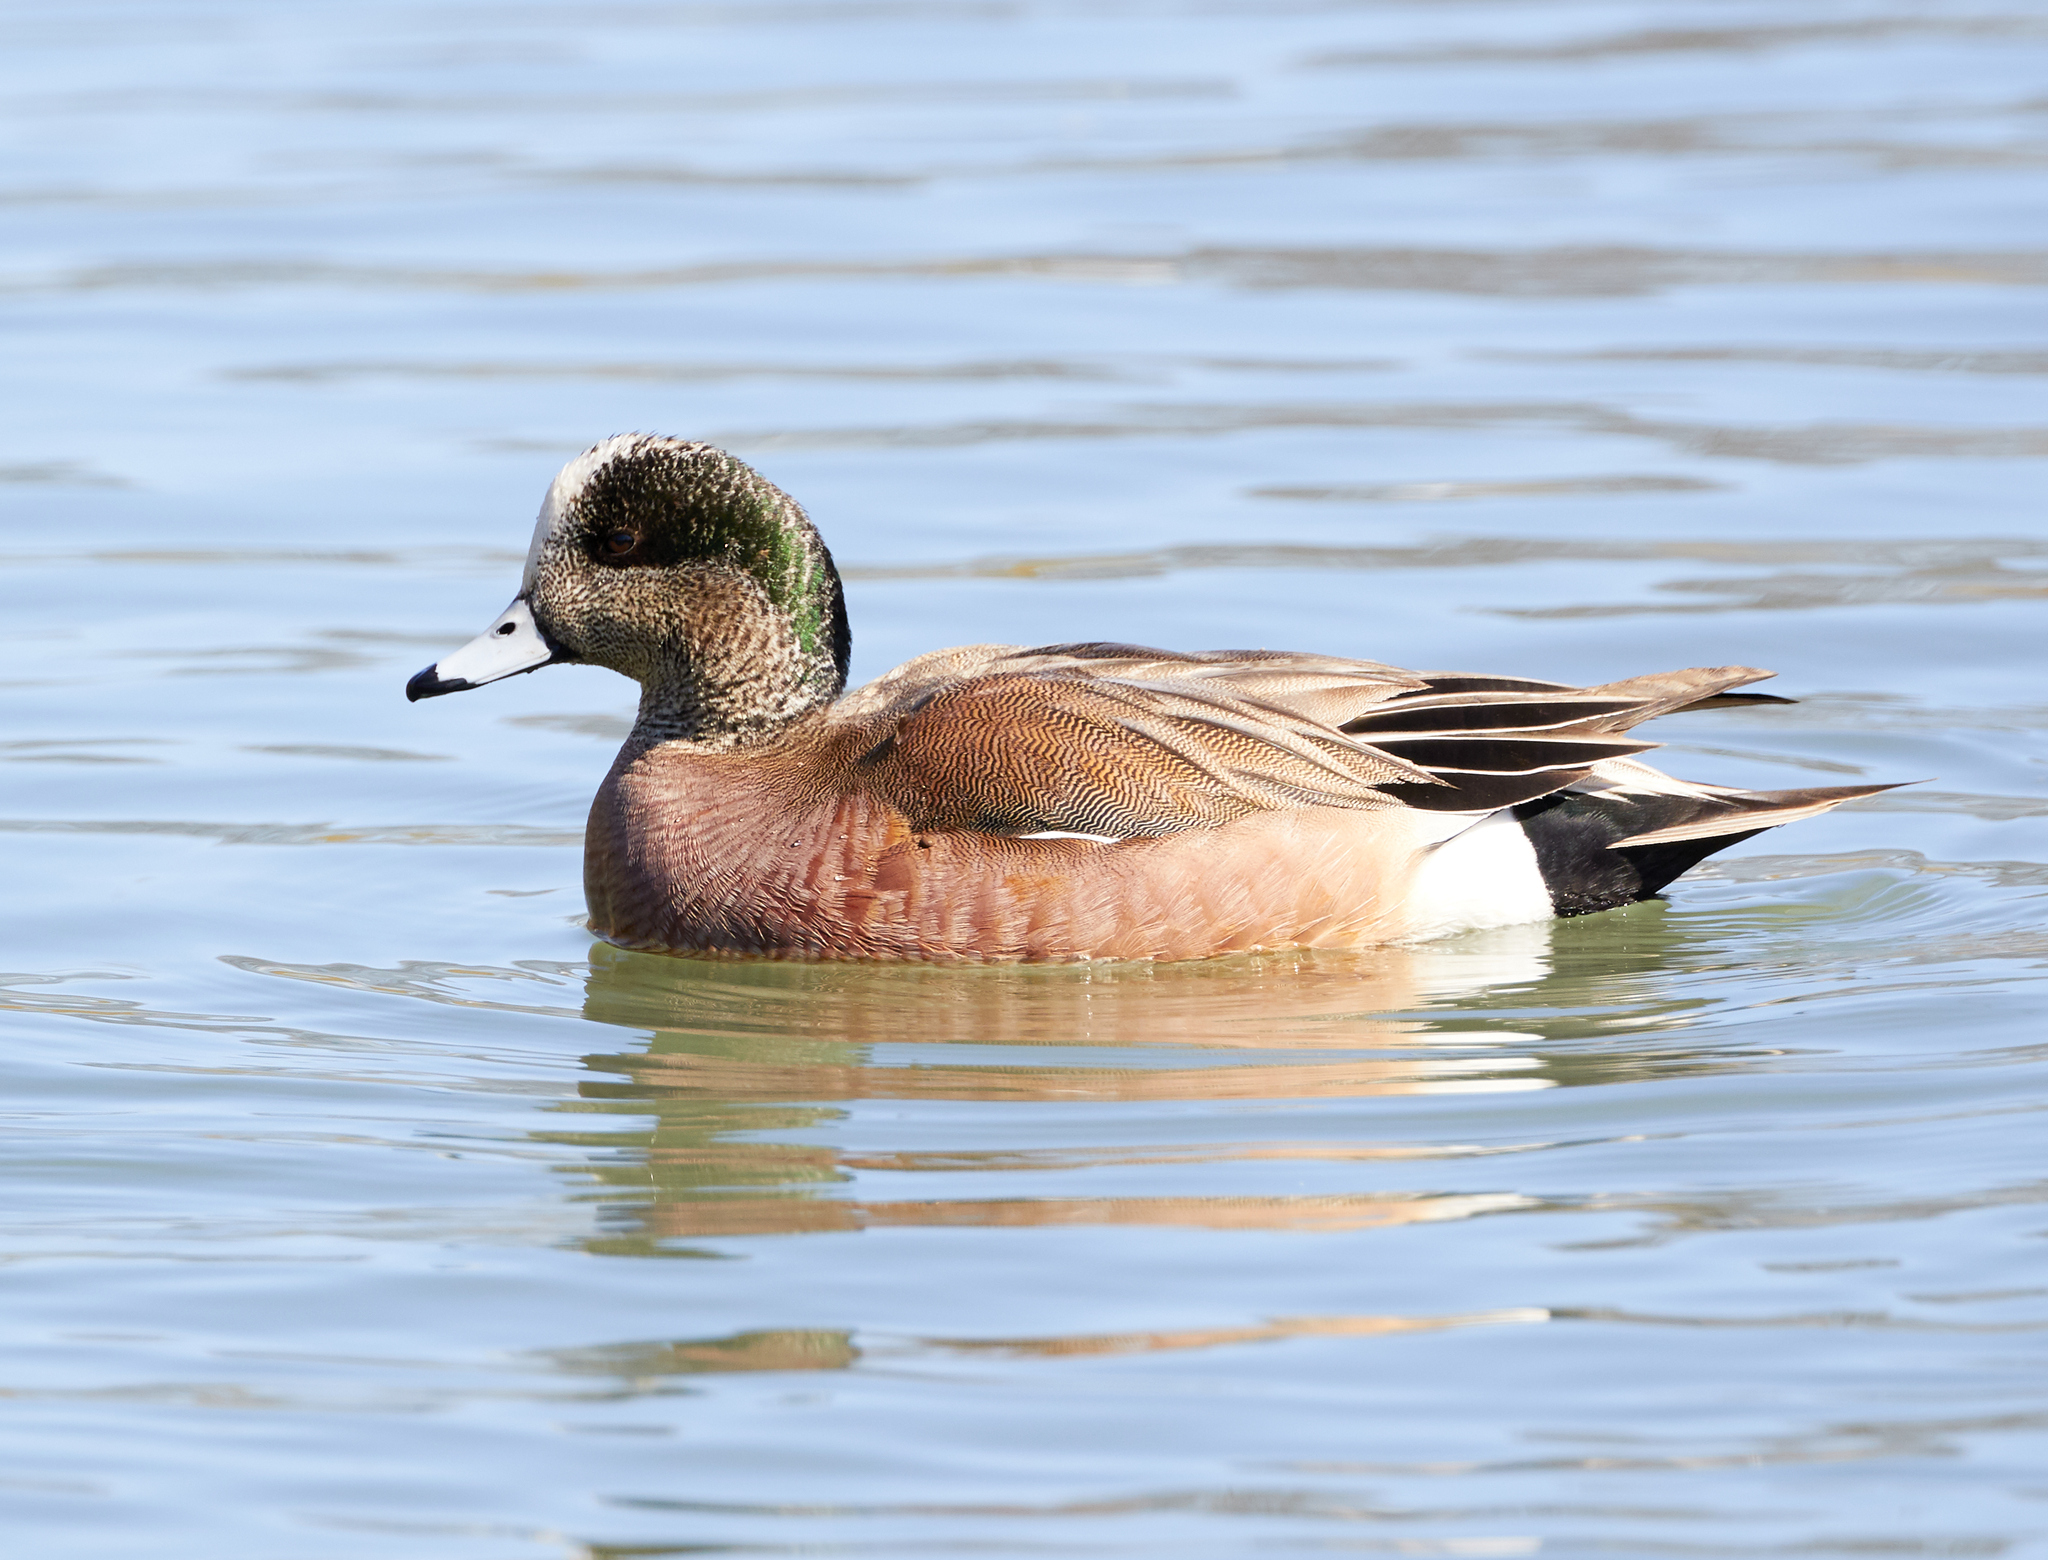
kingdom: Animalia
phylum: Chordata
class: Aves
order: Anseriformes
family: Anatidae
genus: Mareca
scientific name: Mareca americana
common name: American wigeon
